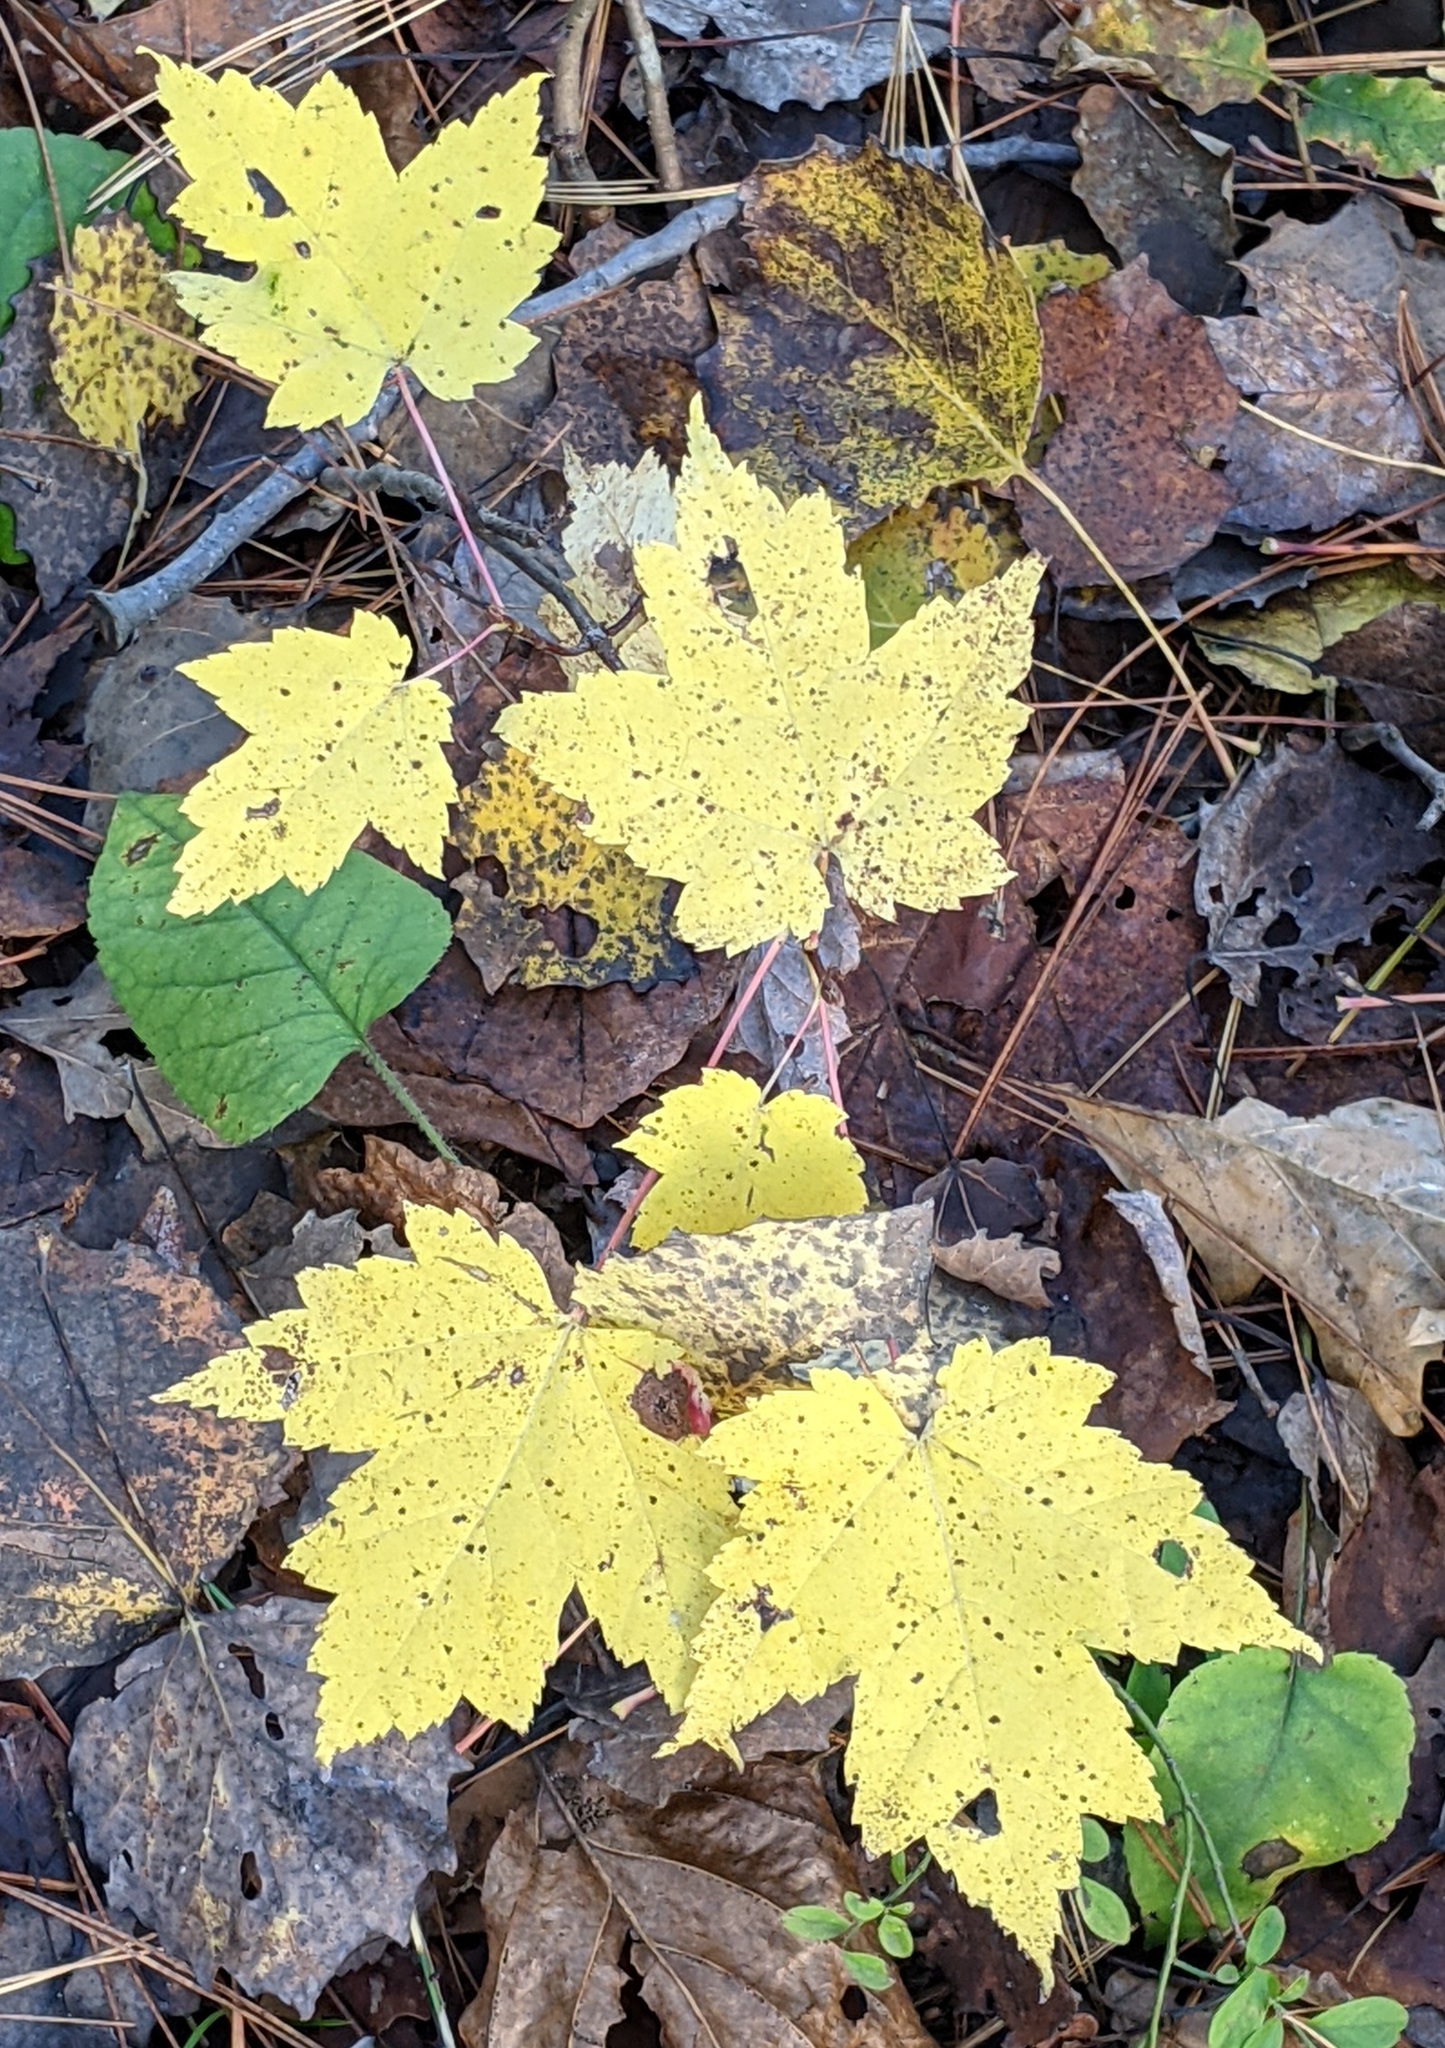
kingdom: Plantae
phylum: Tracheophyta
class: Magnoliopsida
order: Sapindales
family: Sapindaceae
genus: Acer
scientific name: Acer rubrum
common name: Red maple
